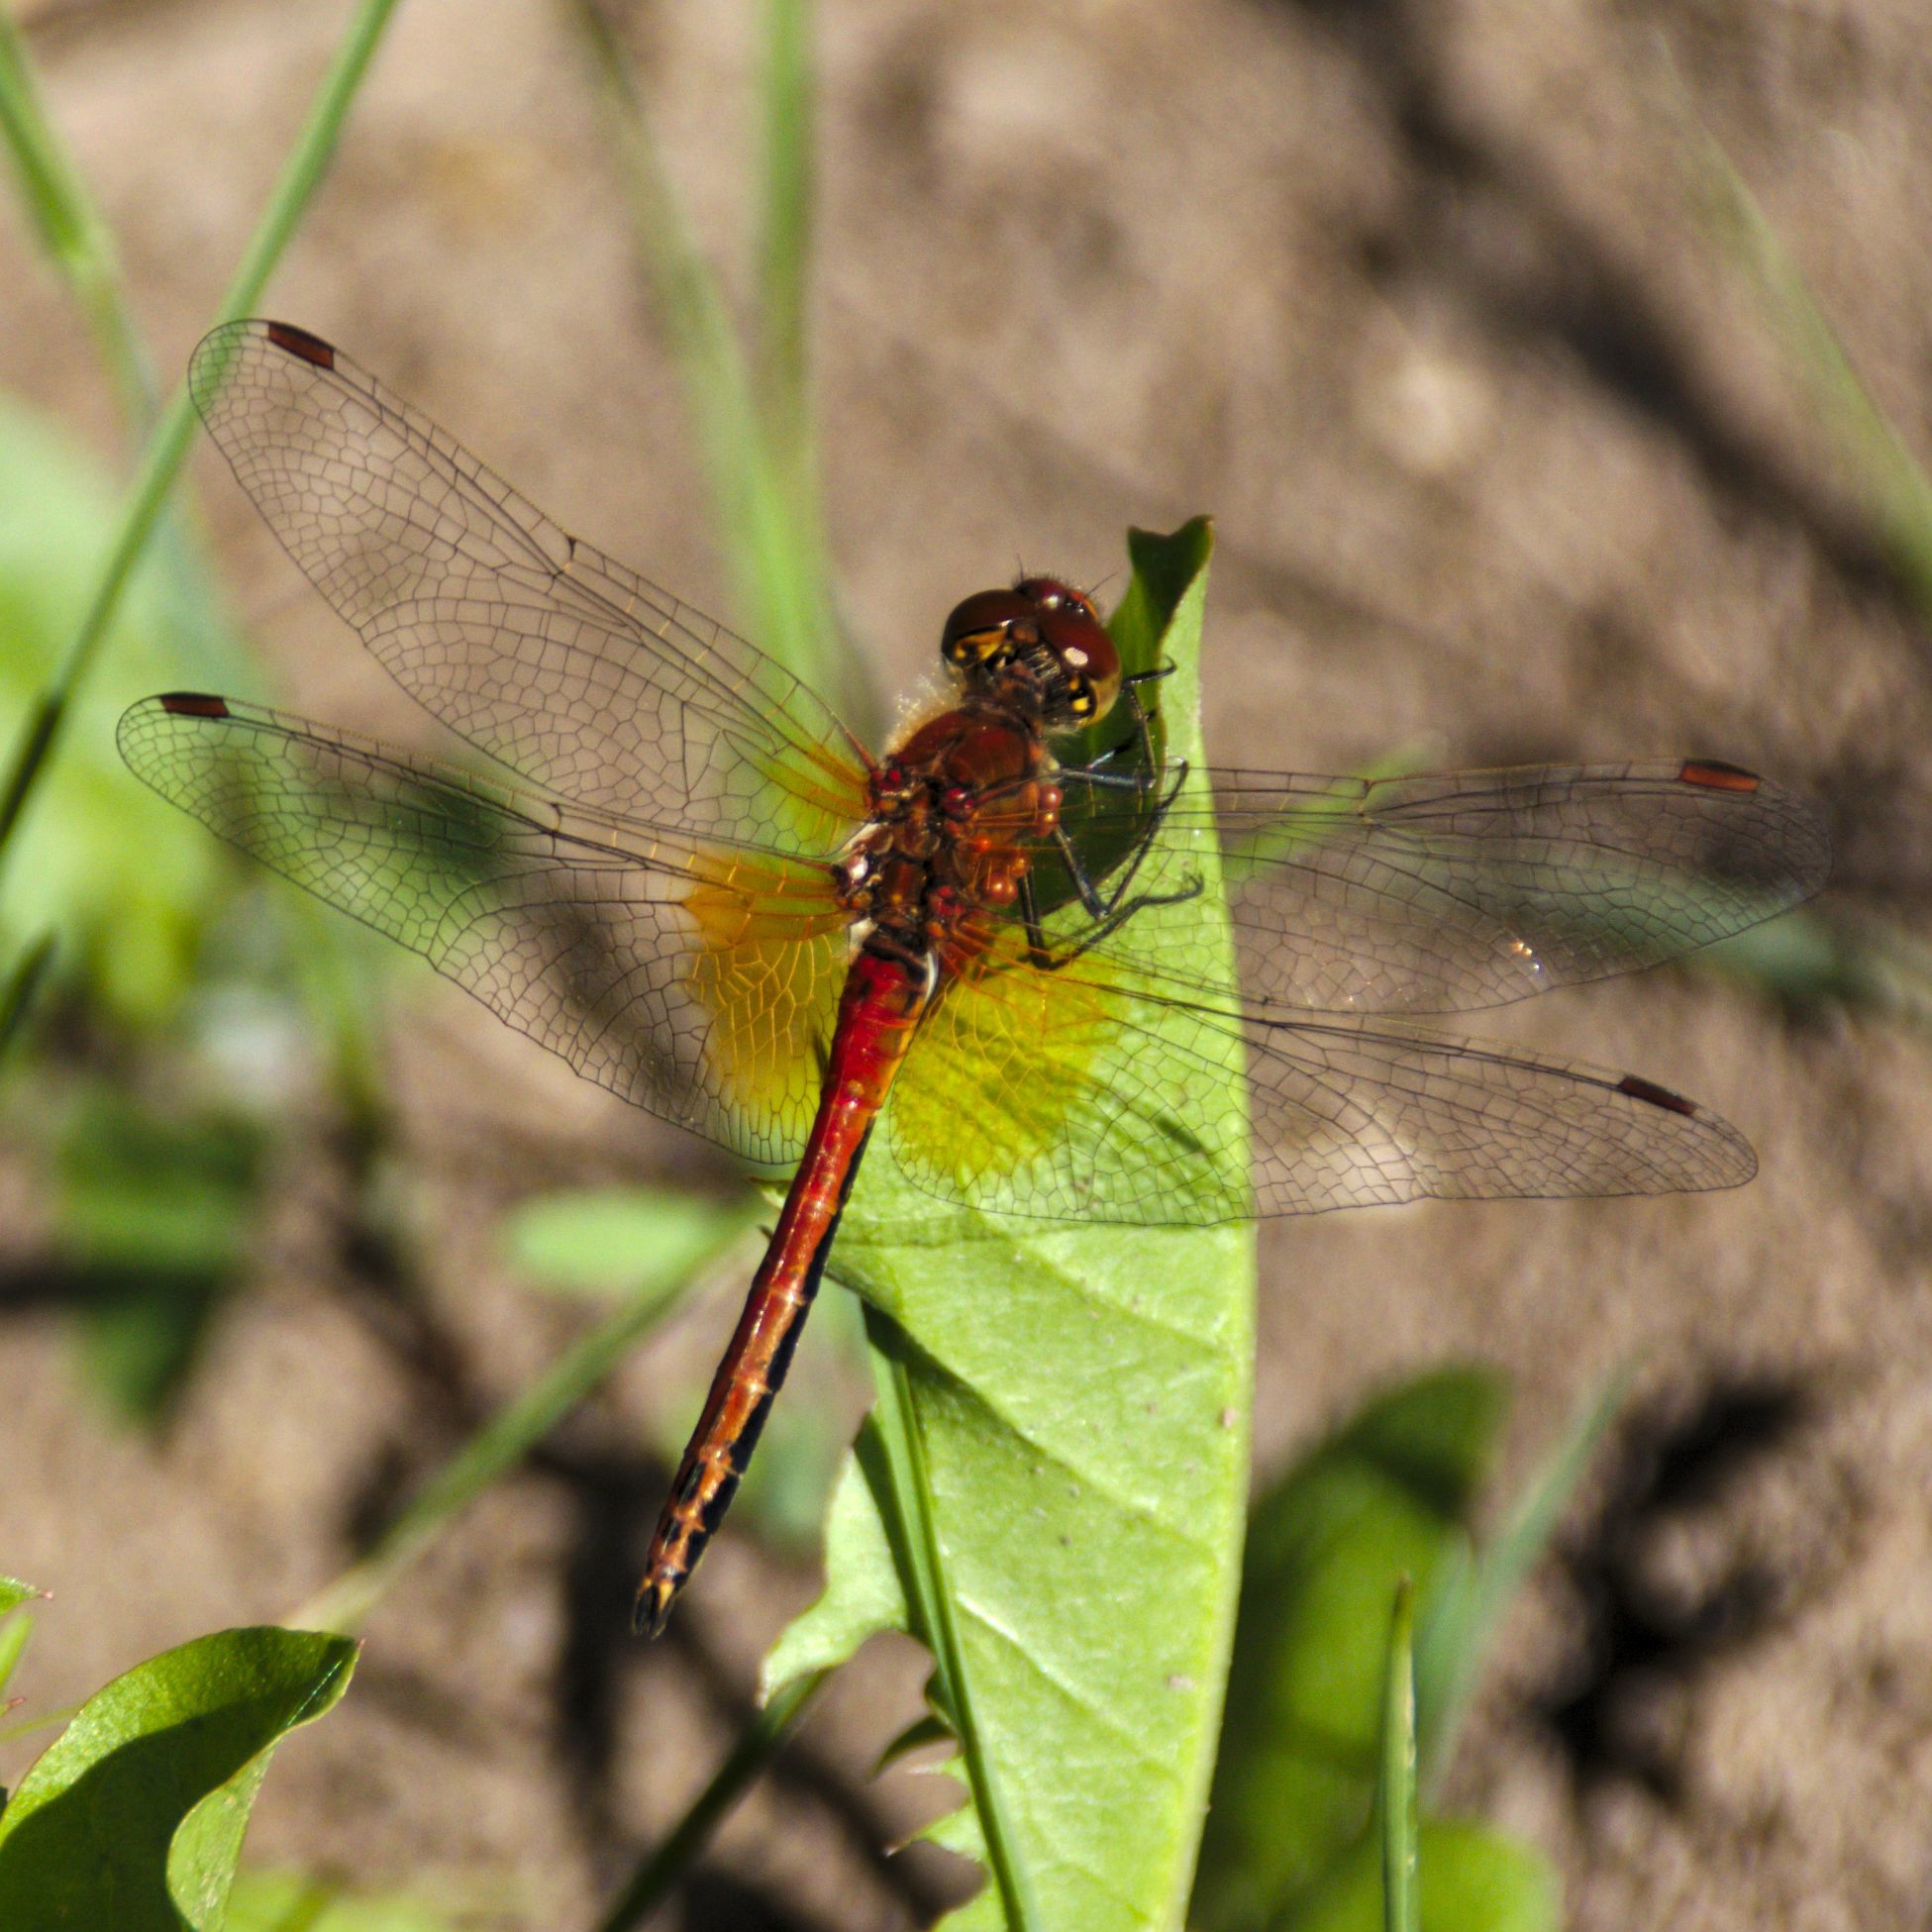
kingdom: Animalia
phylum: Arthropoda
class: Insecta
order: Odonata
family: Libellulidae
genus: Sympetrum
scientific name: Sympetrum flaveolum
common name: Yellow-winged darter
